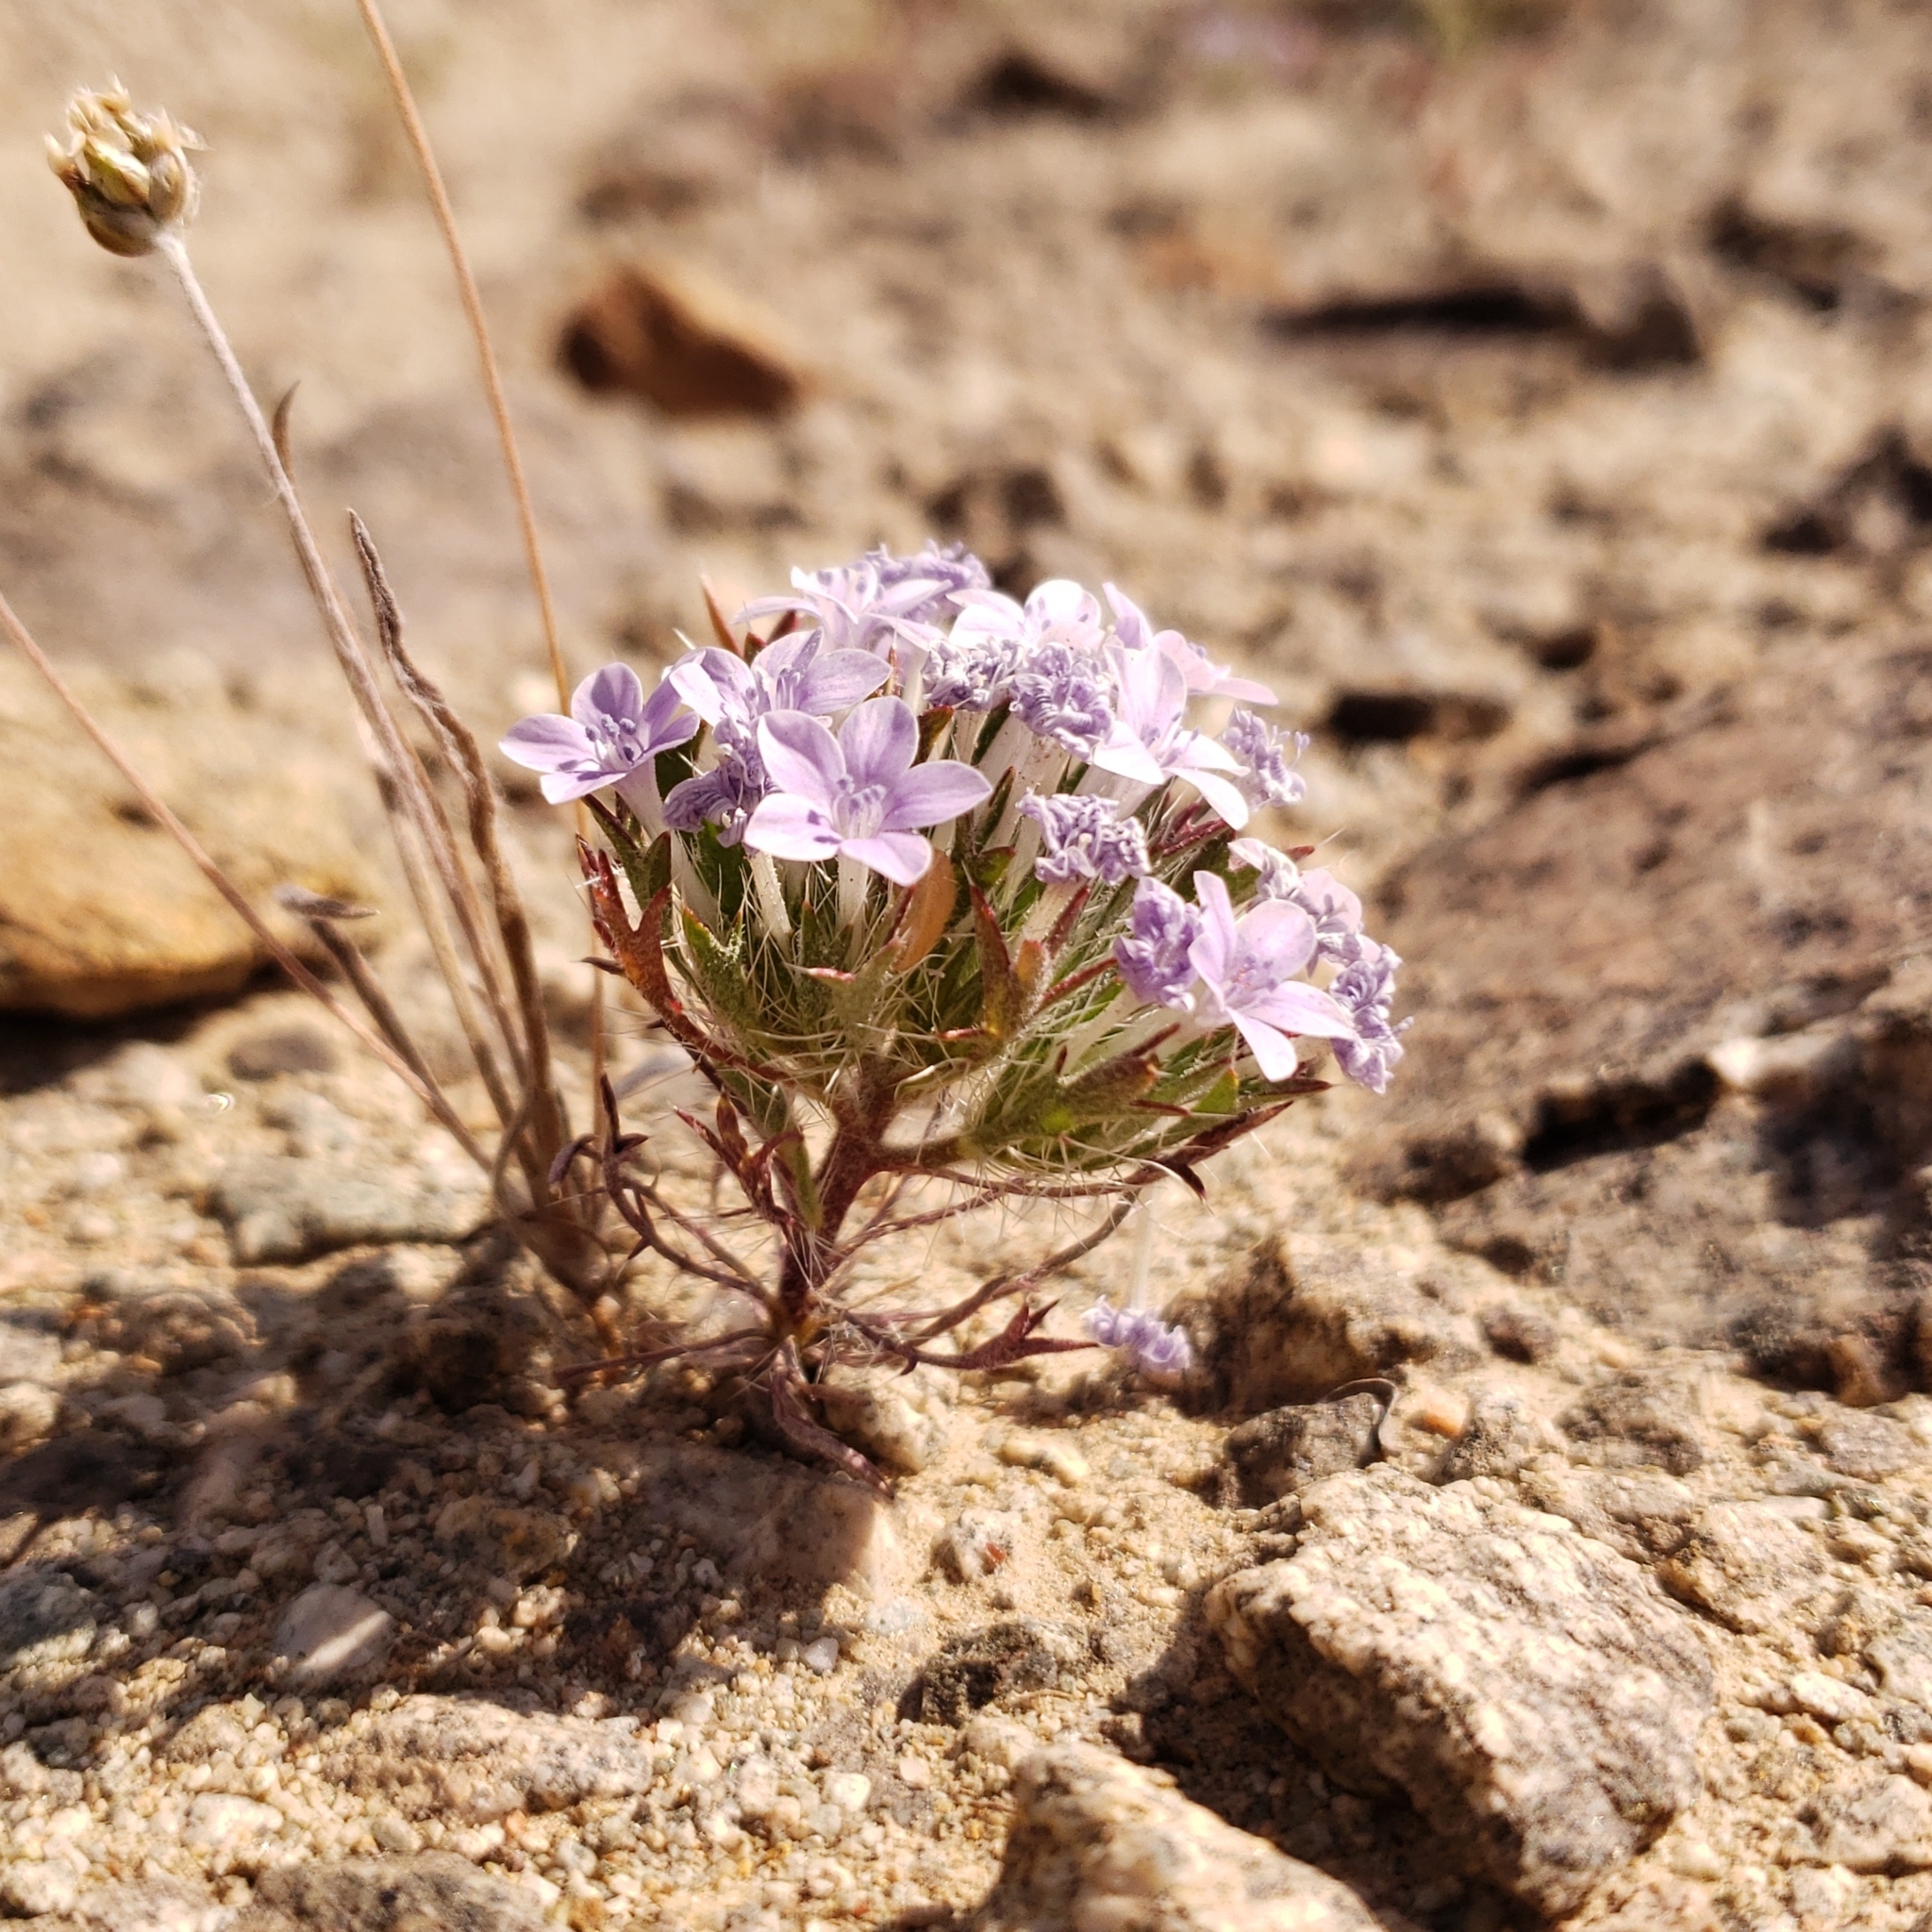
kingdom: Plantae
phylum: Tracheophyta
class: Magnoliopsida
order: Ericales
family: Polemoniaceae
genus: Langloisia
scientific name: Langloisia setosissima
